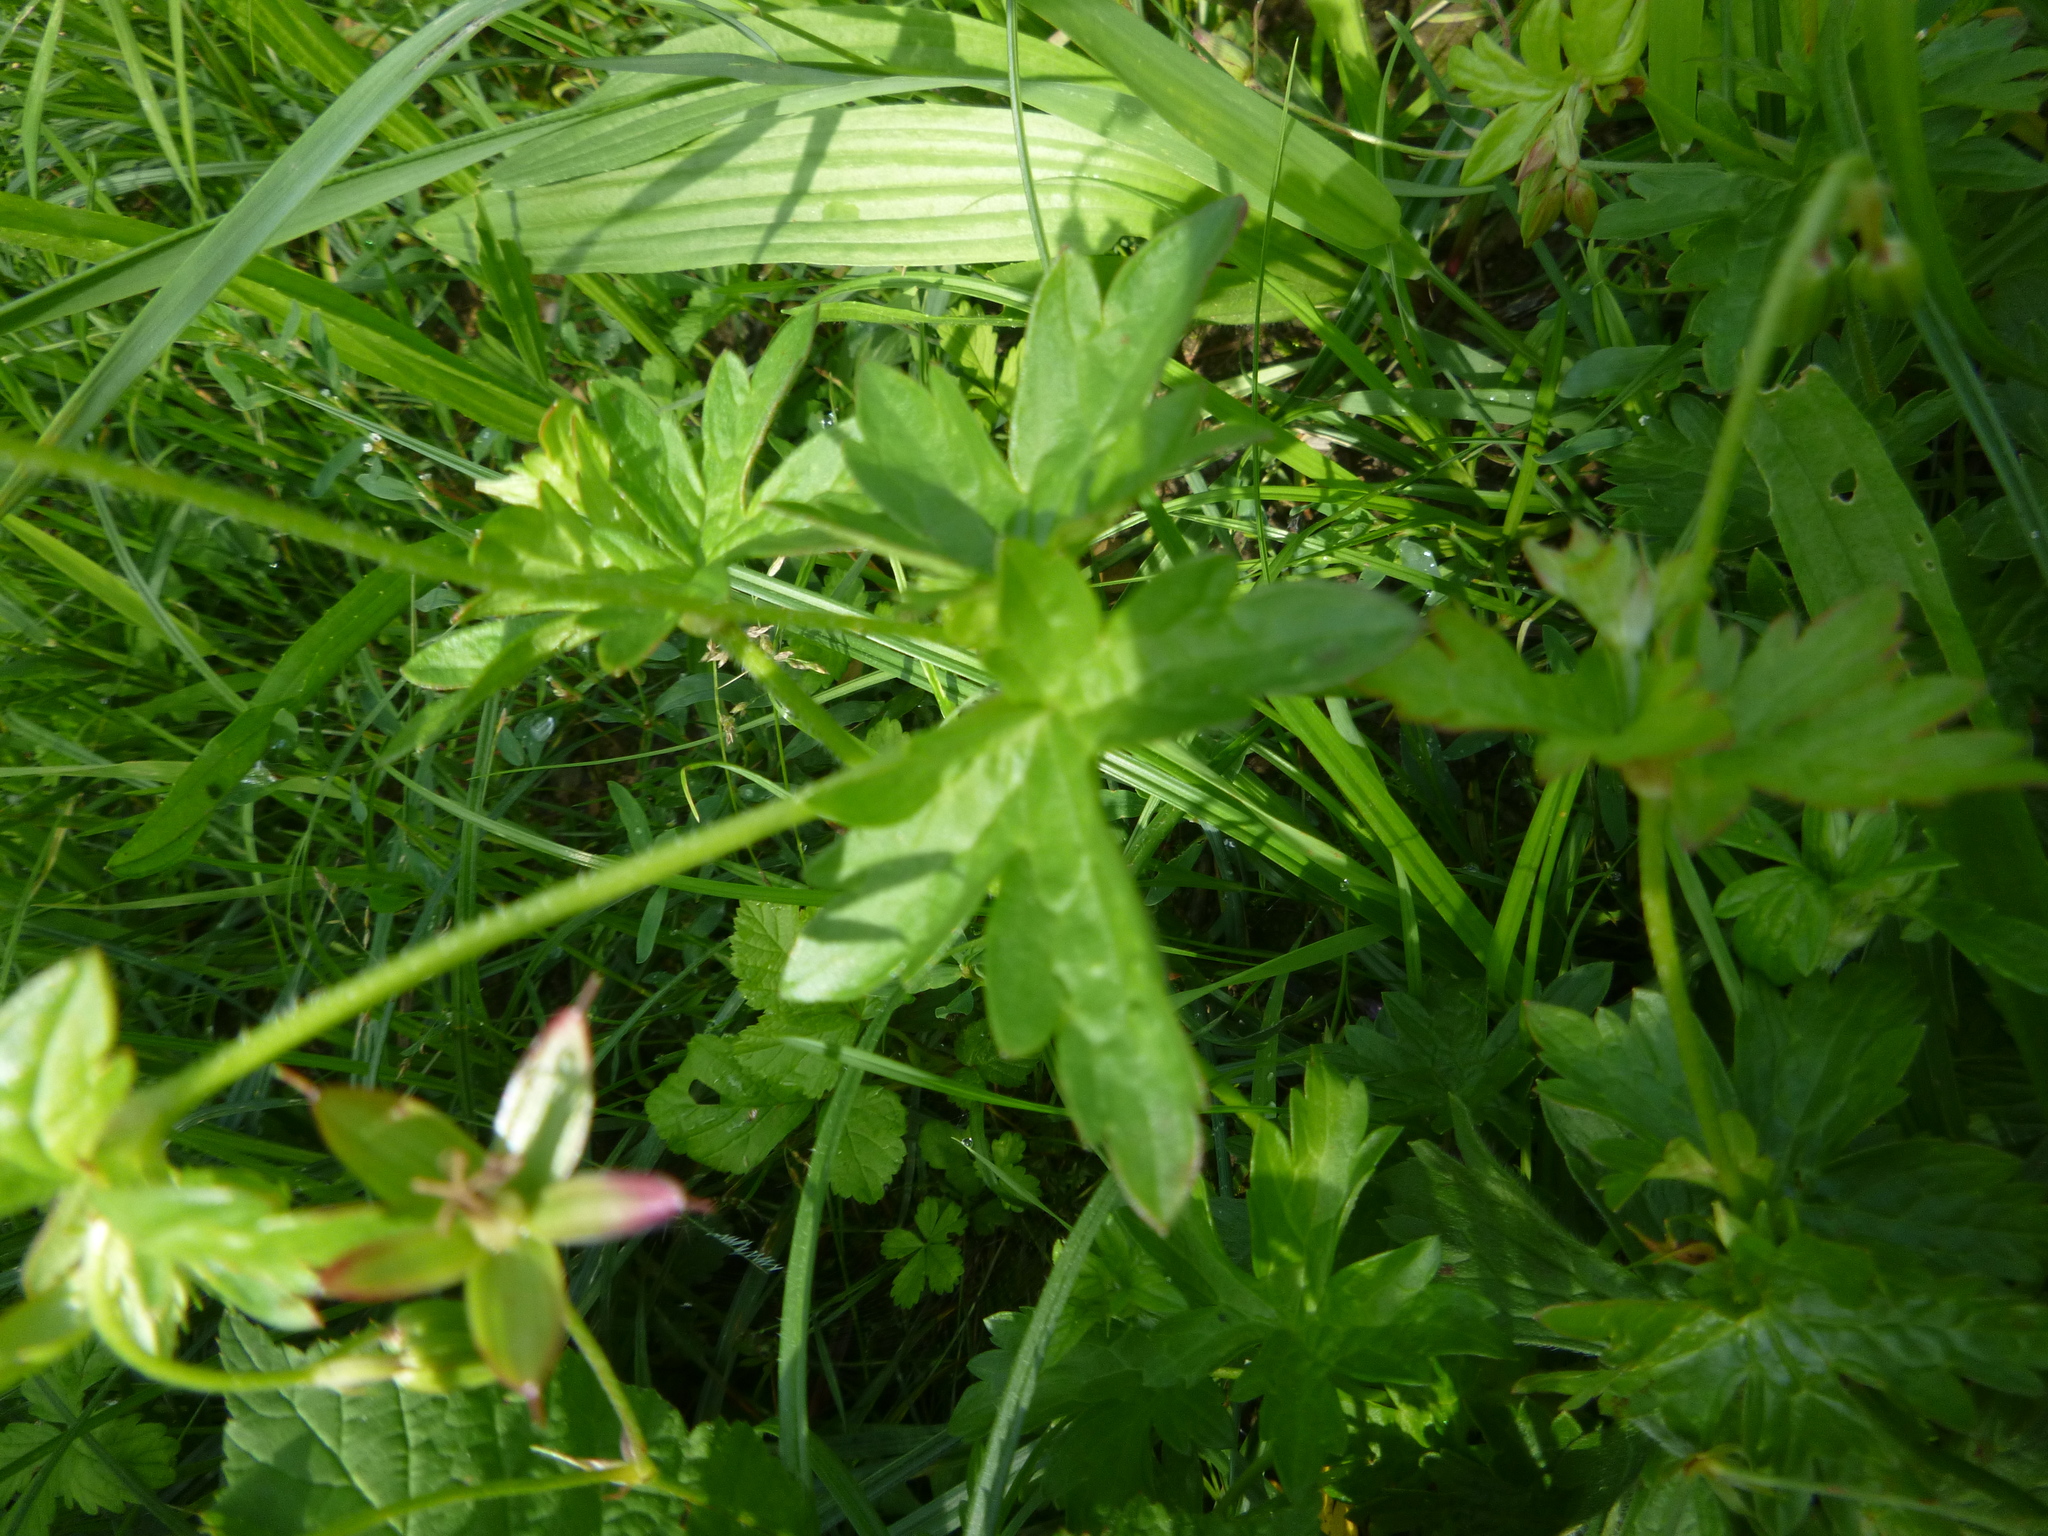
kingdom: Plantae
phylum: Tracheophyta
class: Magnoliopsida
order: Geraniales
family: Geraniaceae
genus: Geranium
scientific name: Geranium palustre
